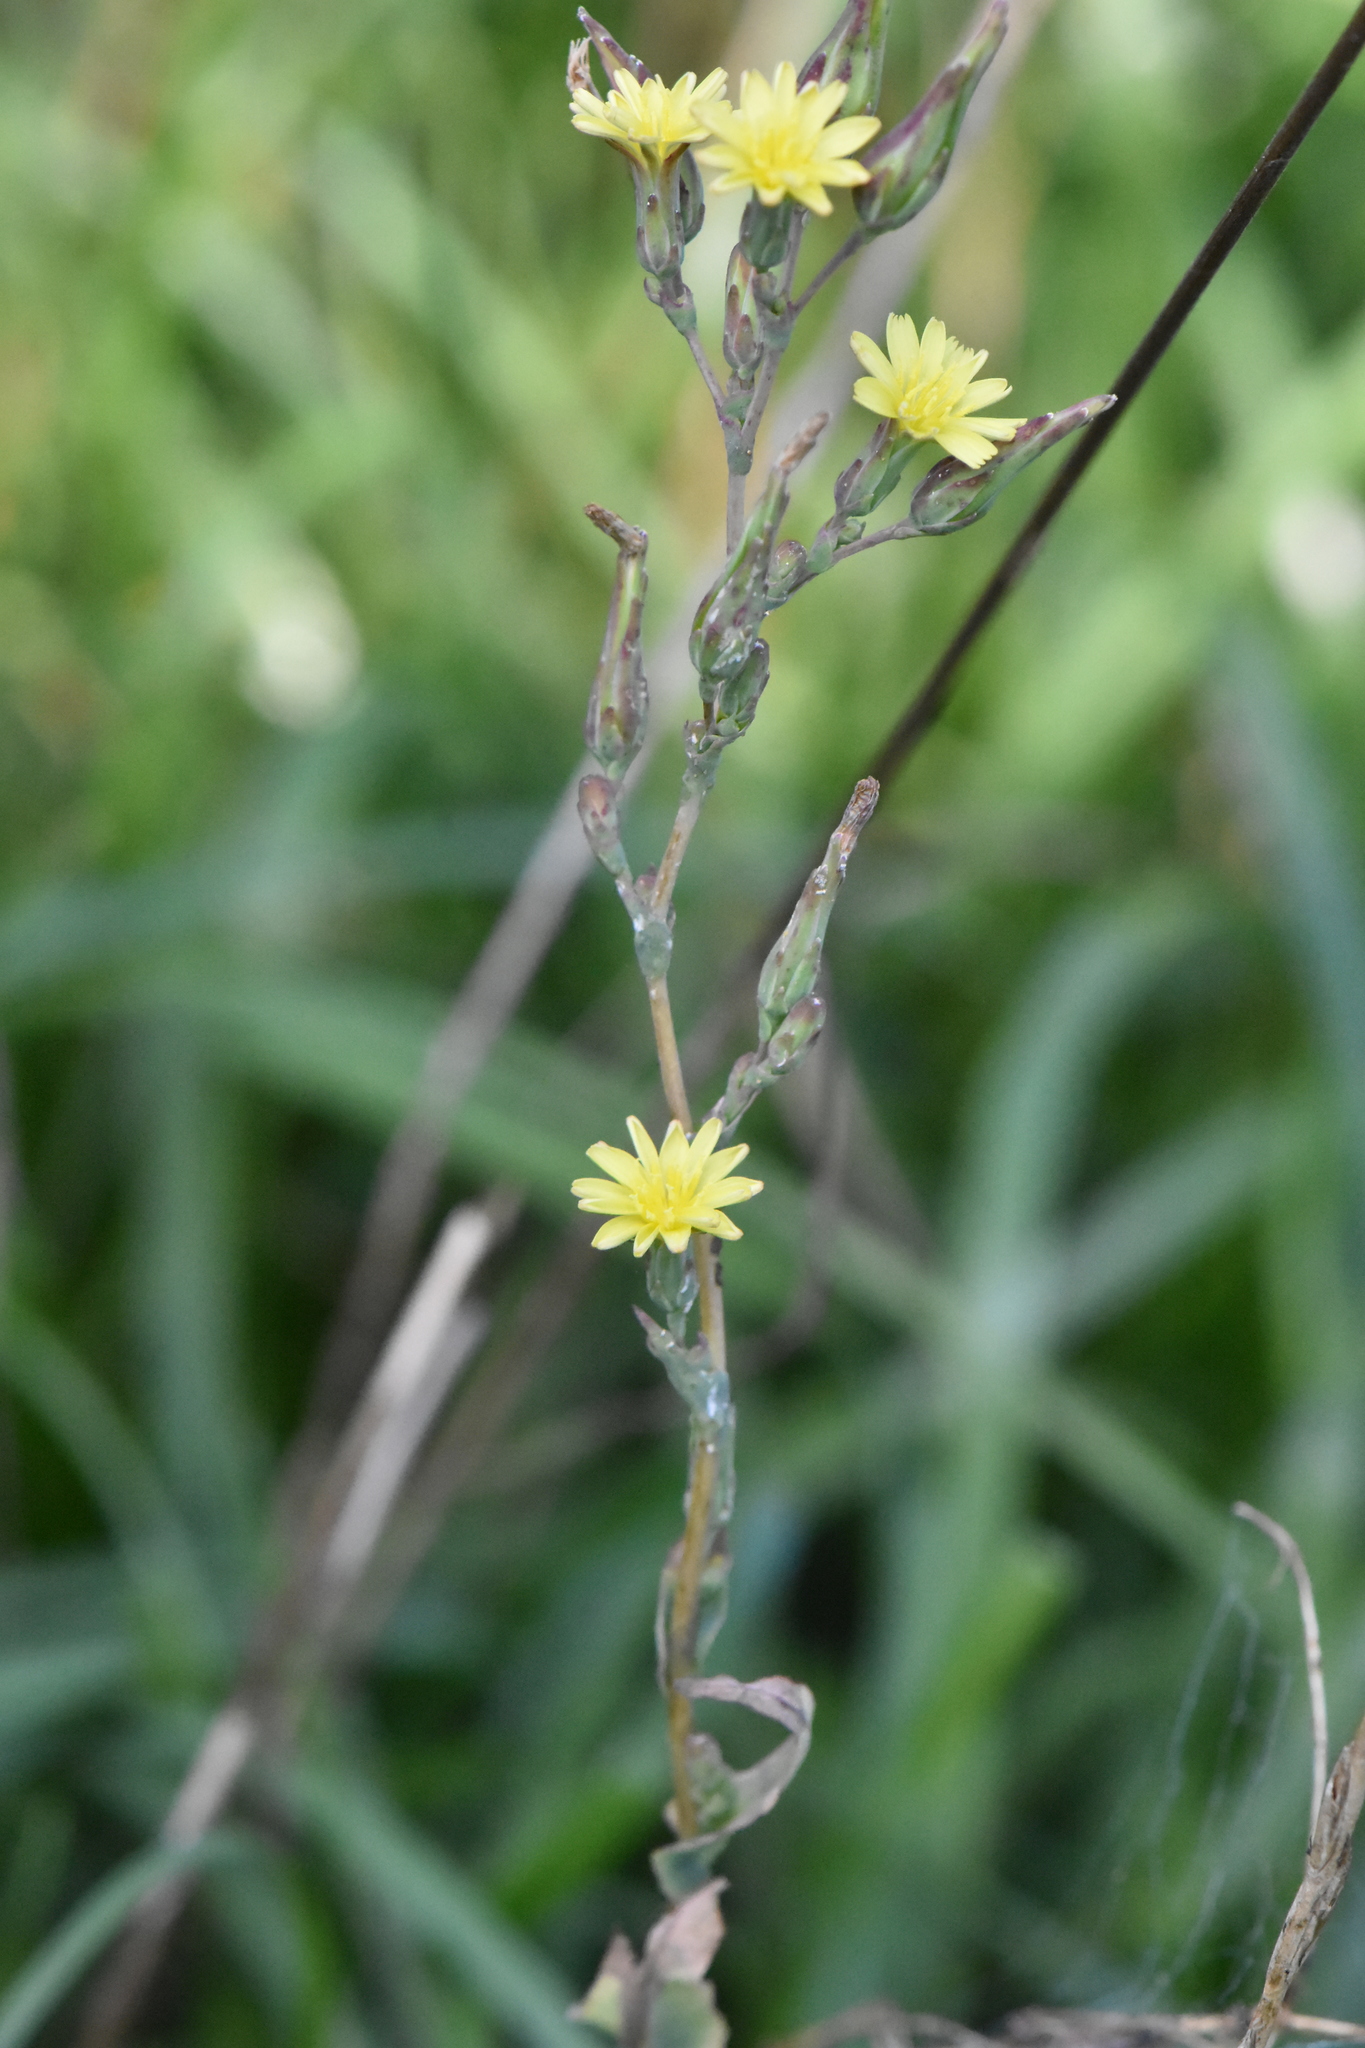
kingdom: Plantae
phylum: Tracheophyta
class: Magnoliopsida
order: Asterales
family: Asteraceae
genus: Lactuca
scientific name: Lactuca serriola
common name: Prickly lettuce
